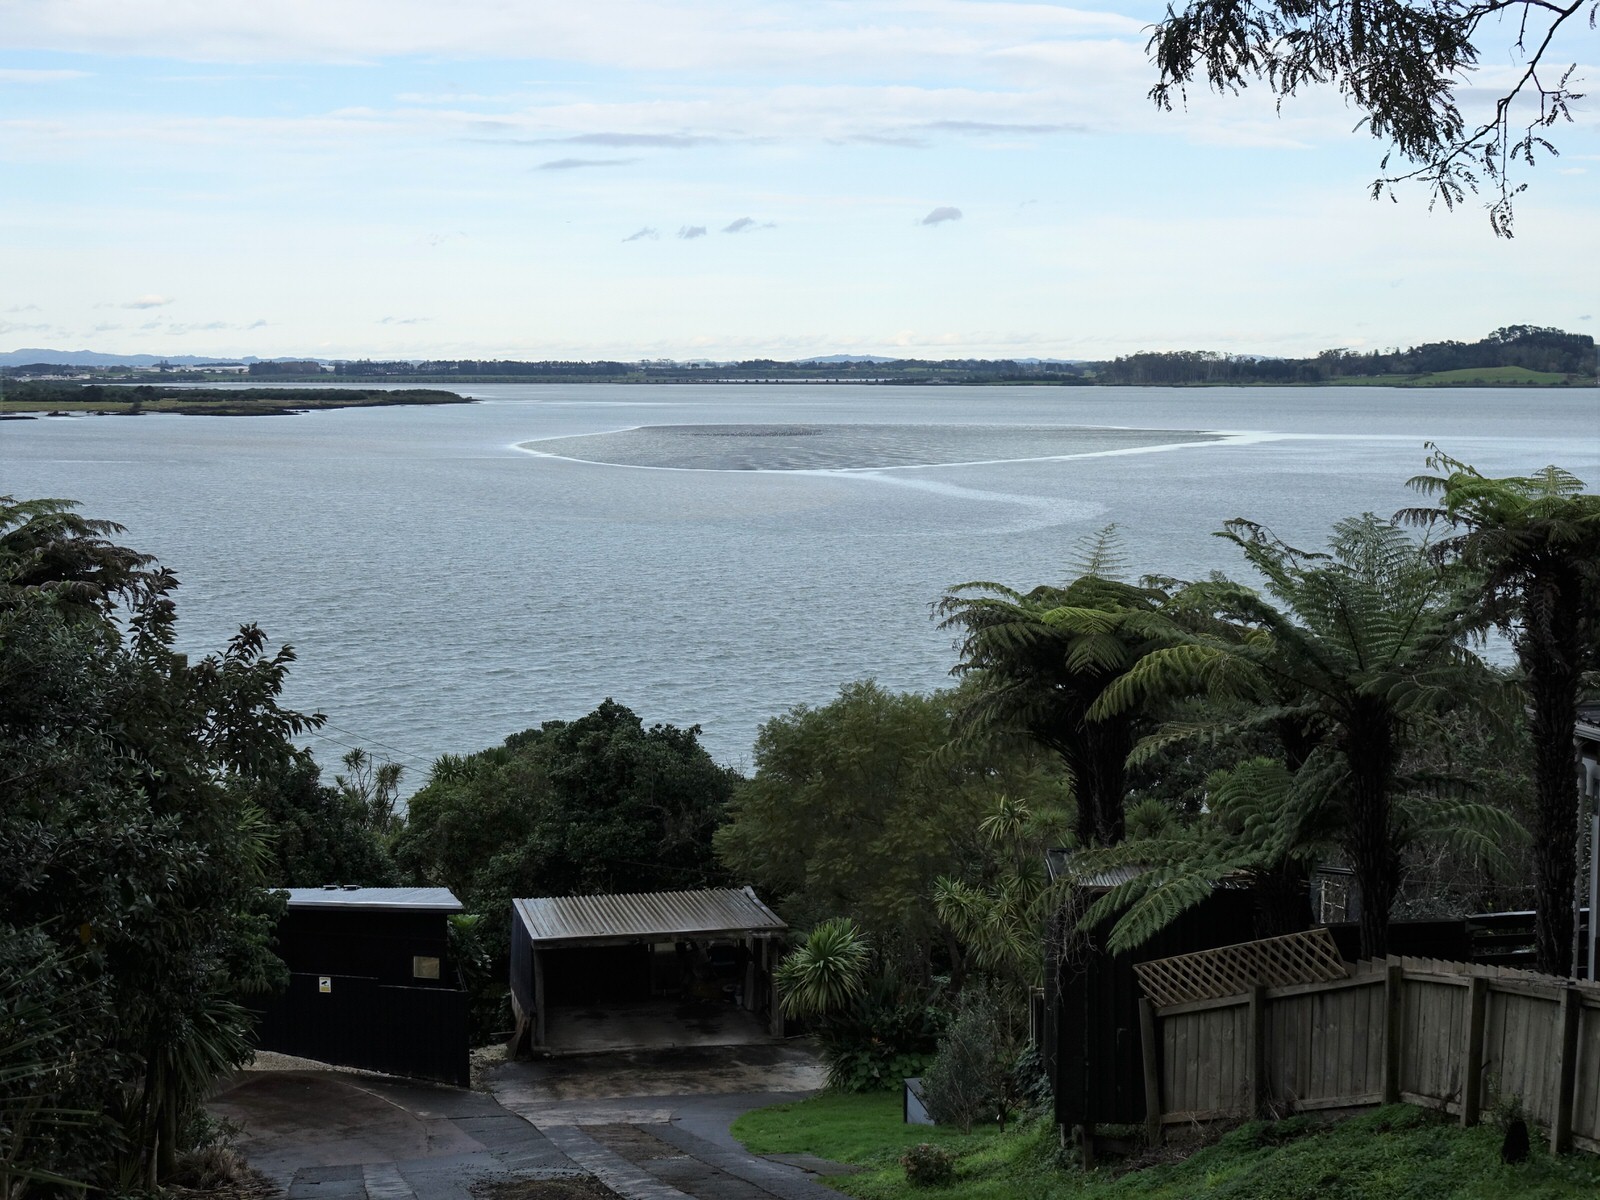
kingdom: Animalia
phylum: Chordata
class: Aves
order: Charadriiformes
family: Haematopodidae
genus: Haematopus
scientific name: Haematopus finschi
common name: South island oystercatcher
